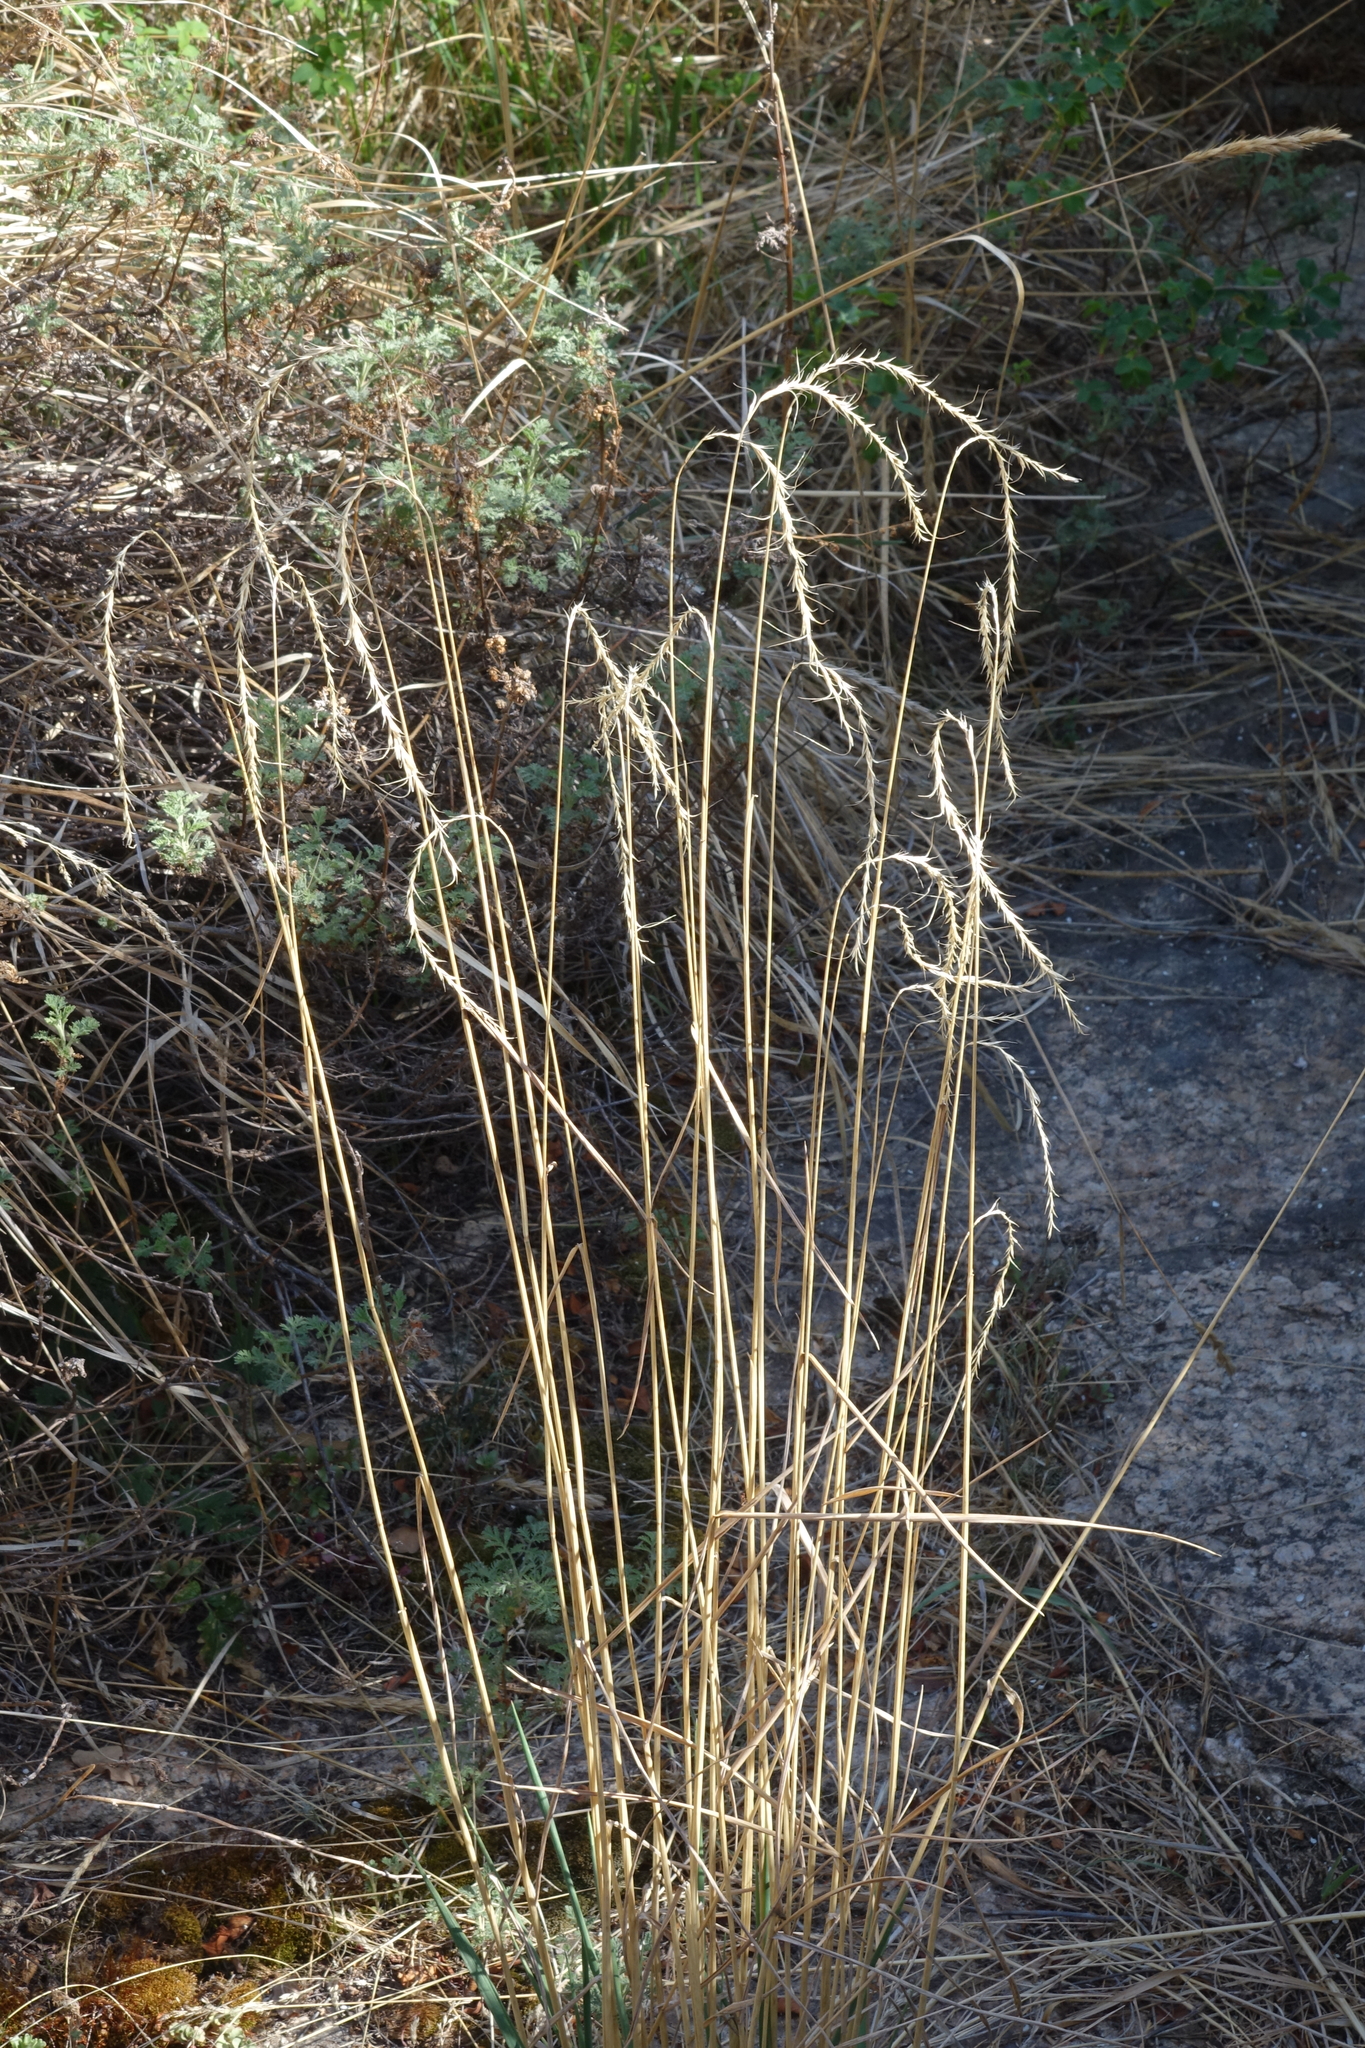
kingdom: Plantae
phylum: Tracheophyta
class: Liliopsida
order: Poales
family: Poaceae
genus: Elymus
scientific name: Elymus sibiricus
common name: Siberian wildrye
